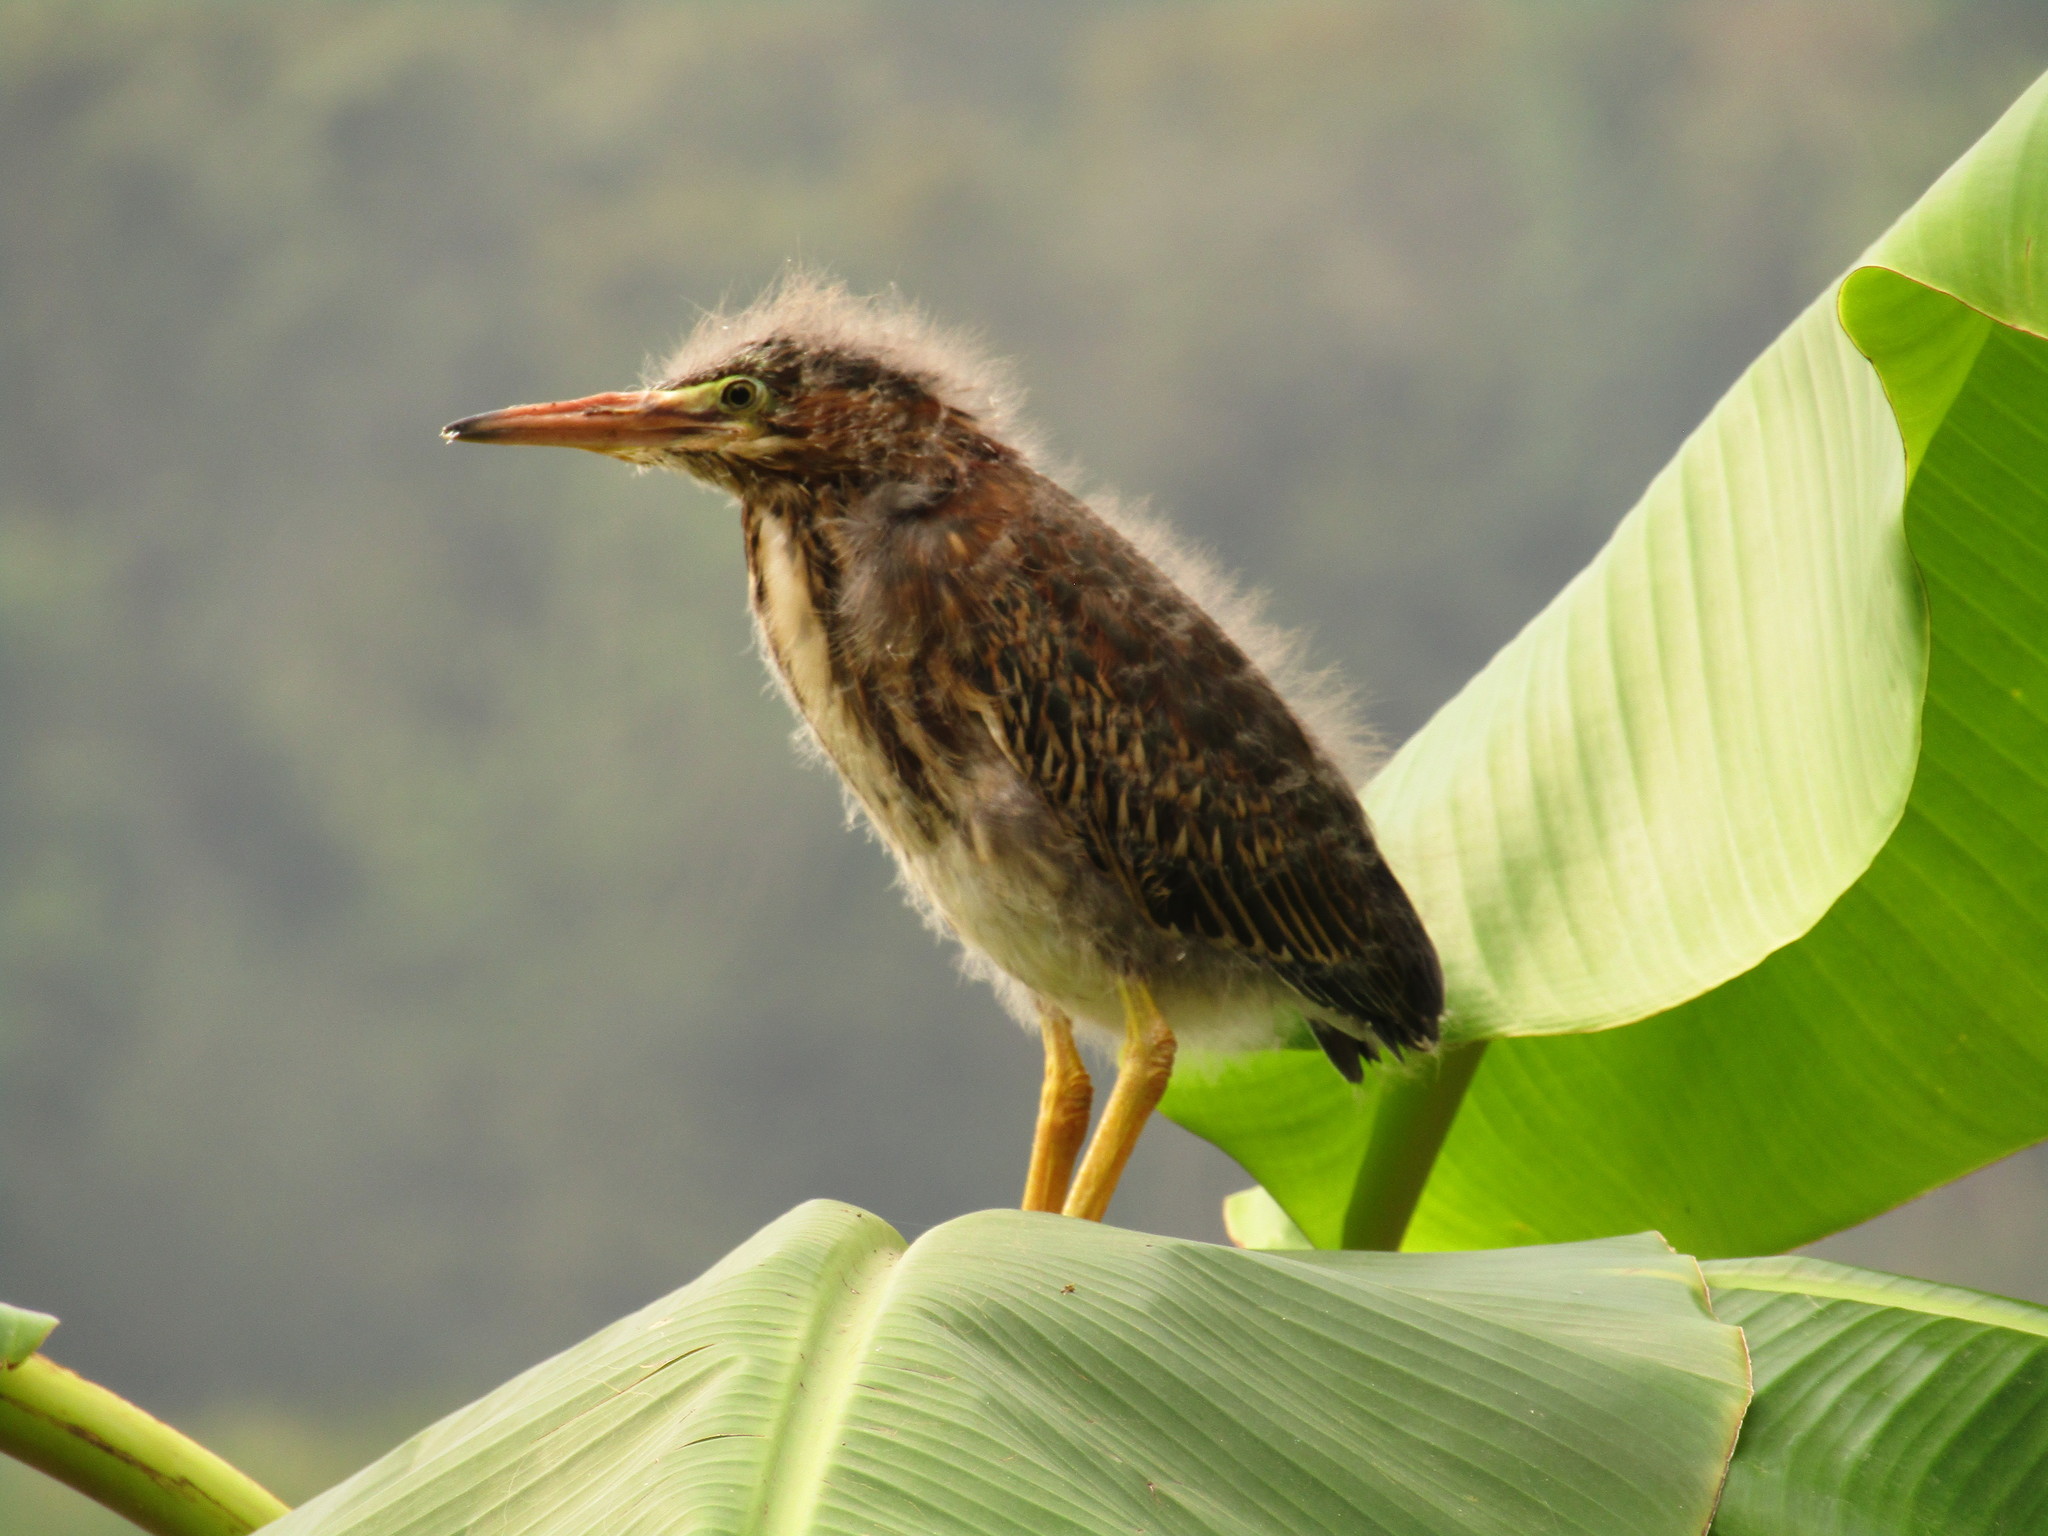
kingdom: Animalia
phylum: Chordata
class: Aves
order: Pelecaniformes
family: Ardeidae
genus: Butorides
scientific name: Butorides virescens
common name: Green heron
